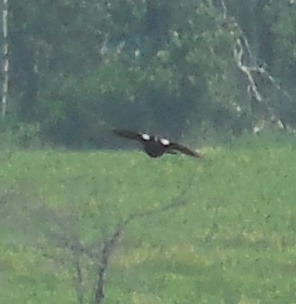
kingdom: Animalia
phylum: Chordata
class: Aves
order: Passeriformes
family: Icteridae
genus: Dolichonyx
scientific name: Dolichonyx oryzivorus
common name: Bobolink
